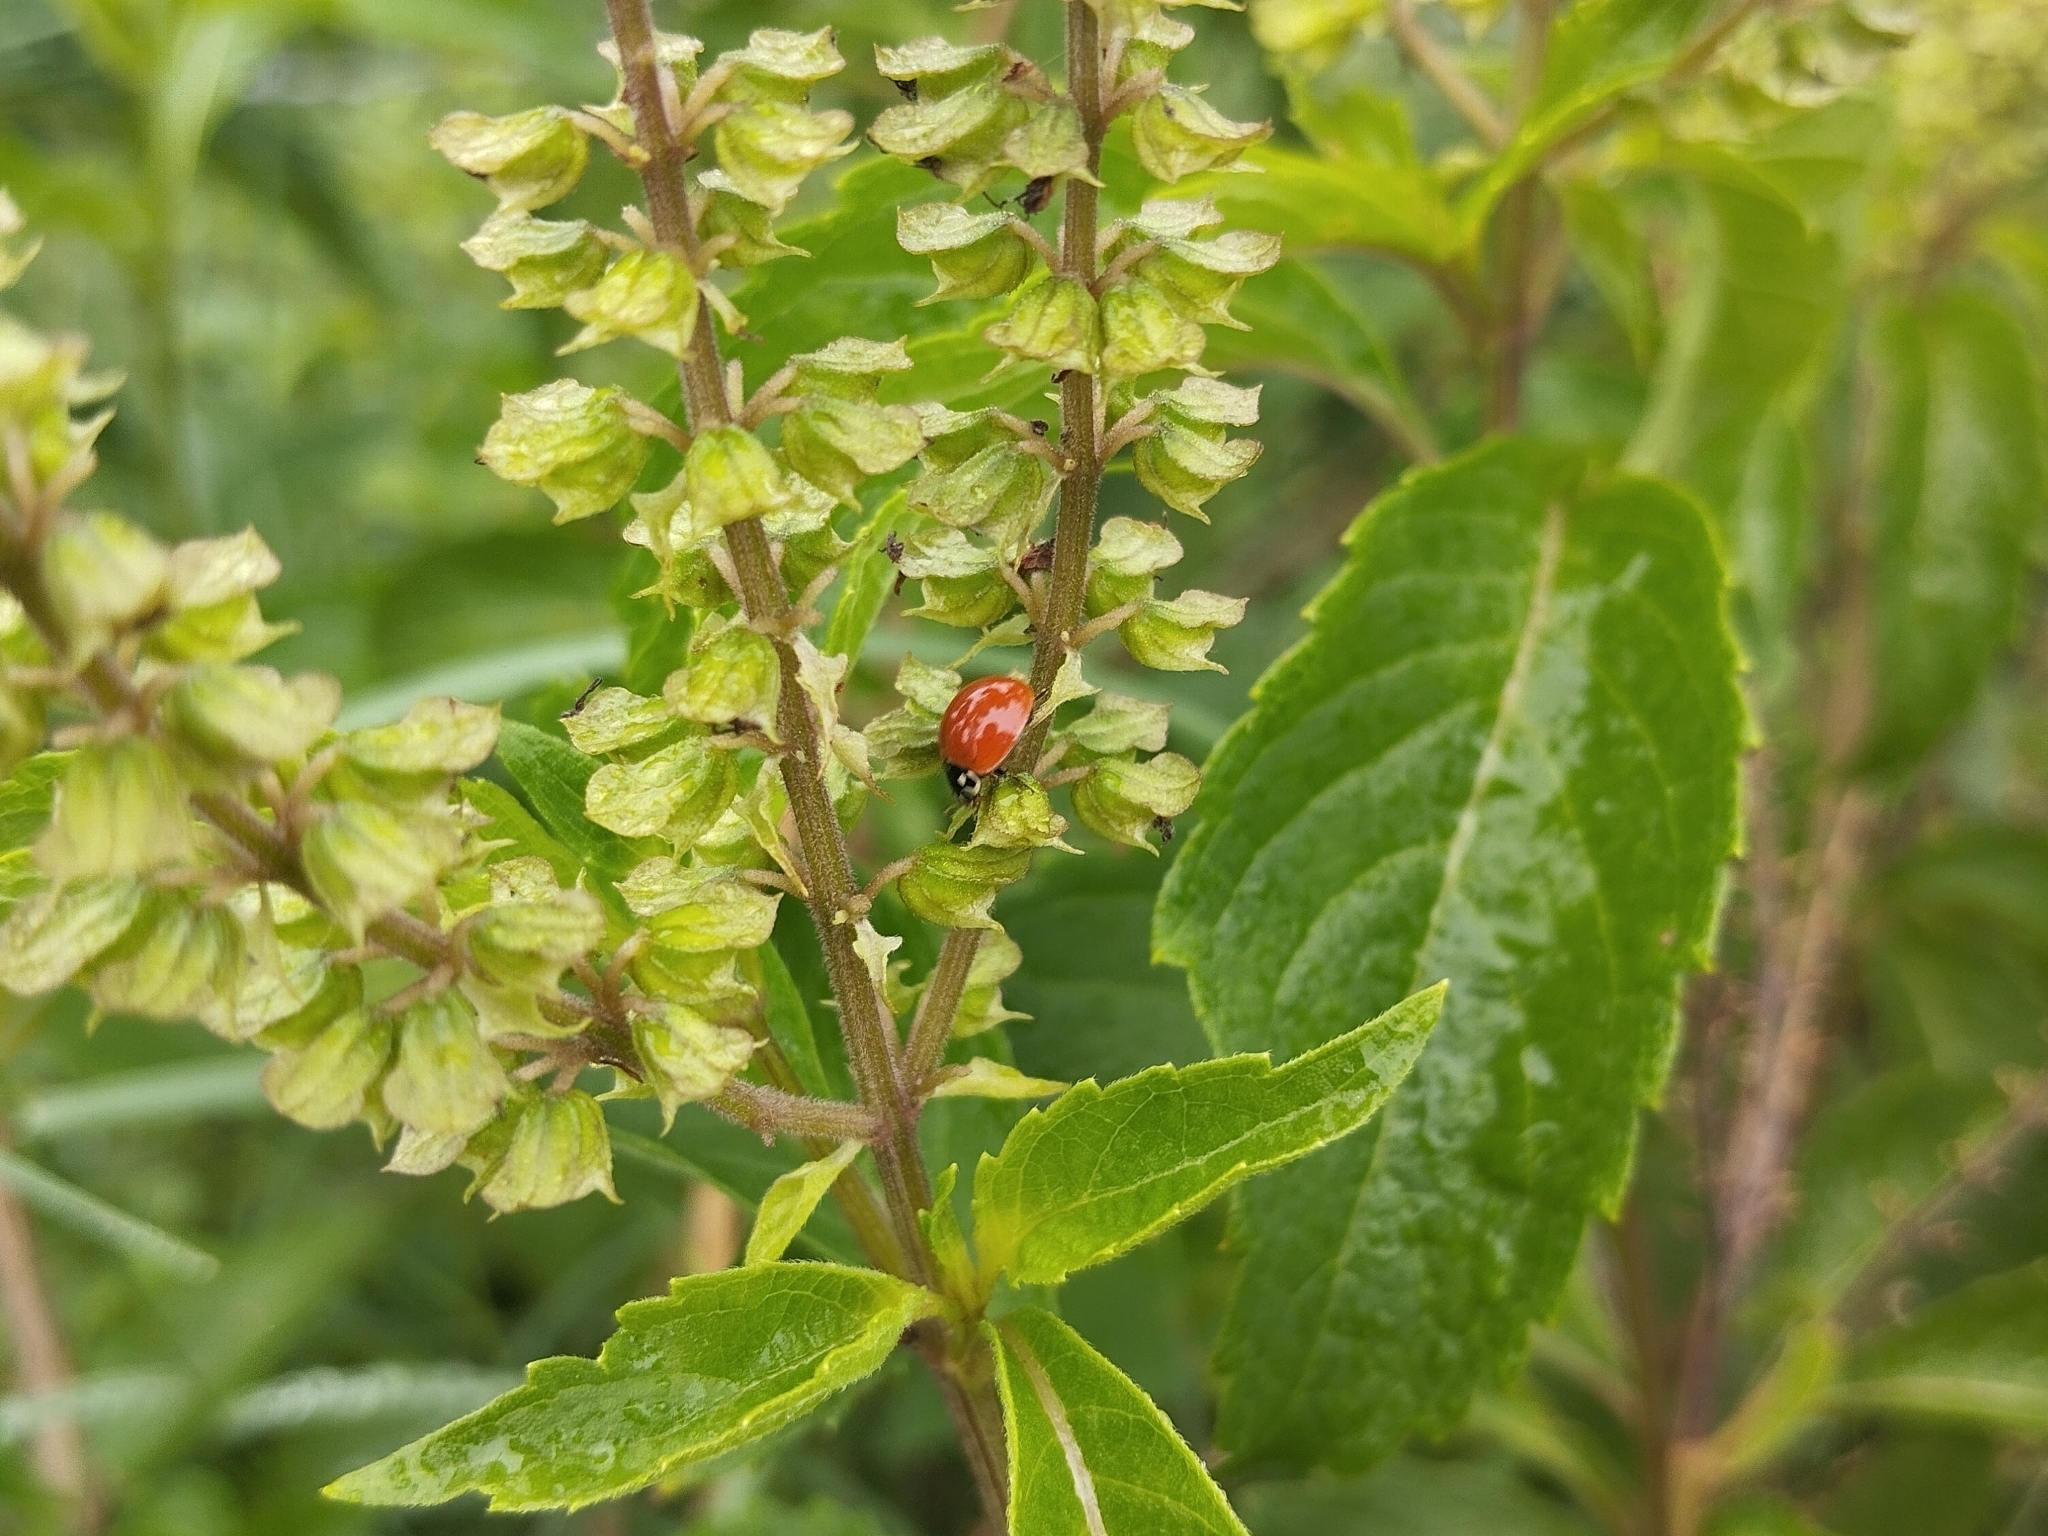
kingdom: Animalia
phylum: Arthropoda
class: Insecta
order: Coleoptera
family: Coccinellidae
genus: Cycloneda
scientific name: Cycloneda sanguinea
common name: Ladybird beetle
